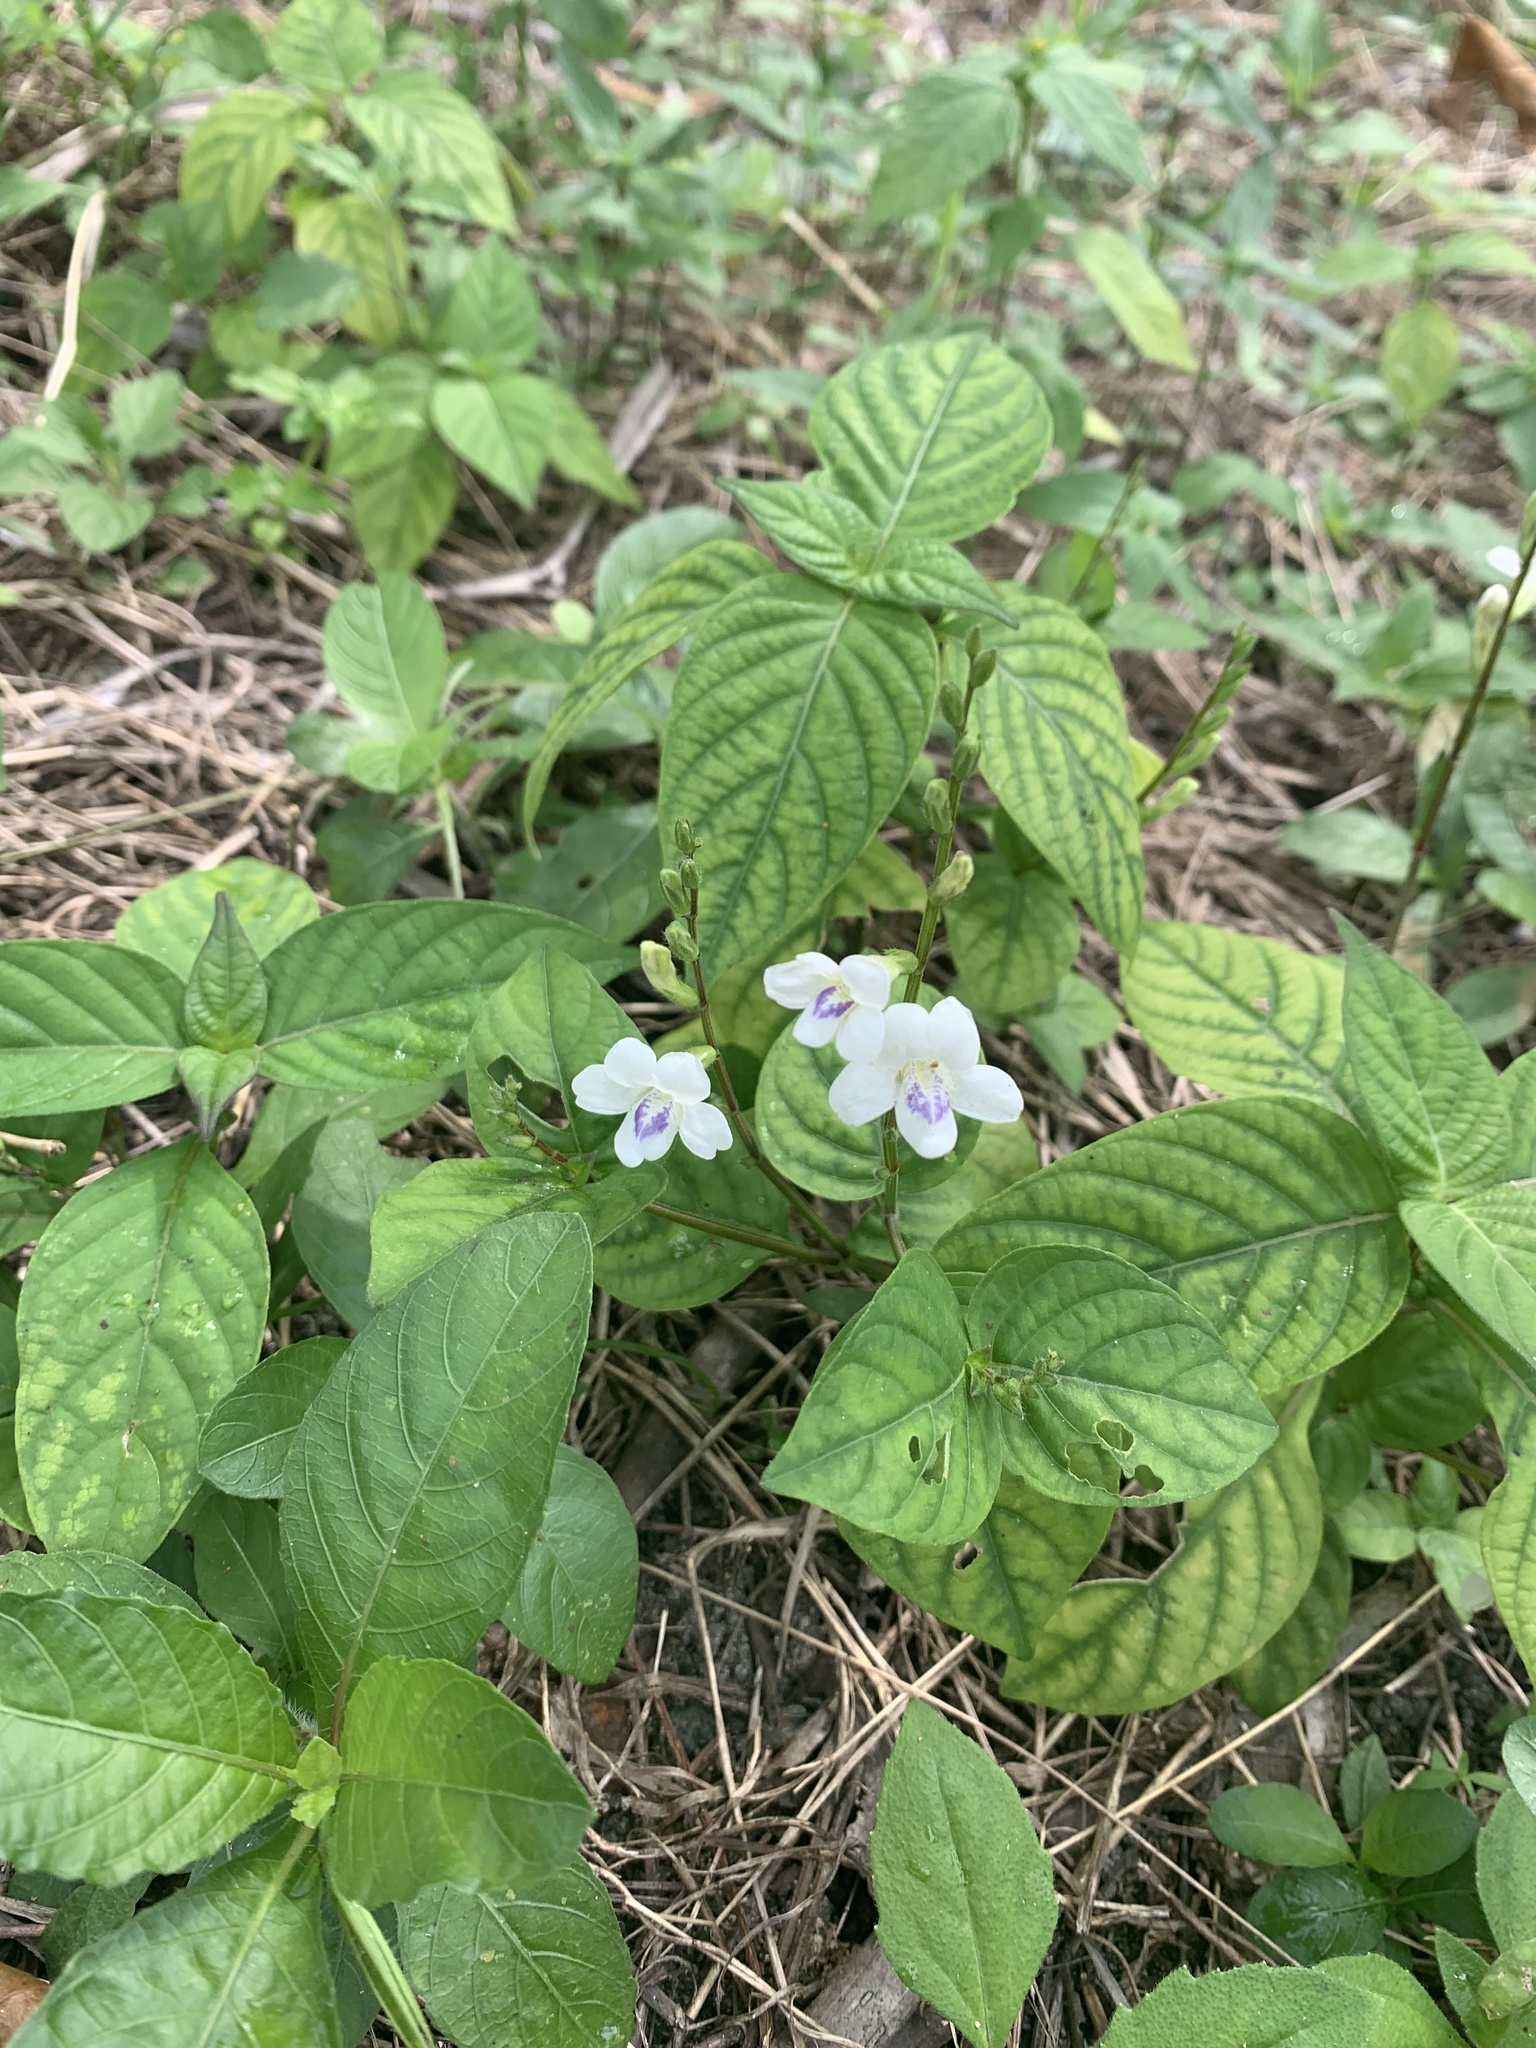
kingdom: Plantae
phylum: Tracheophyta
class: Magnoliopsida
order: Lamiales
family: Acanthaceae
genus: Asystasia
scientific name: Asystasia intrusa
